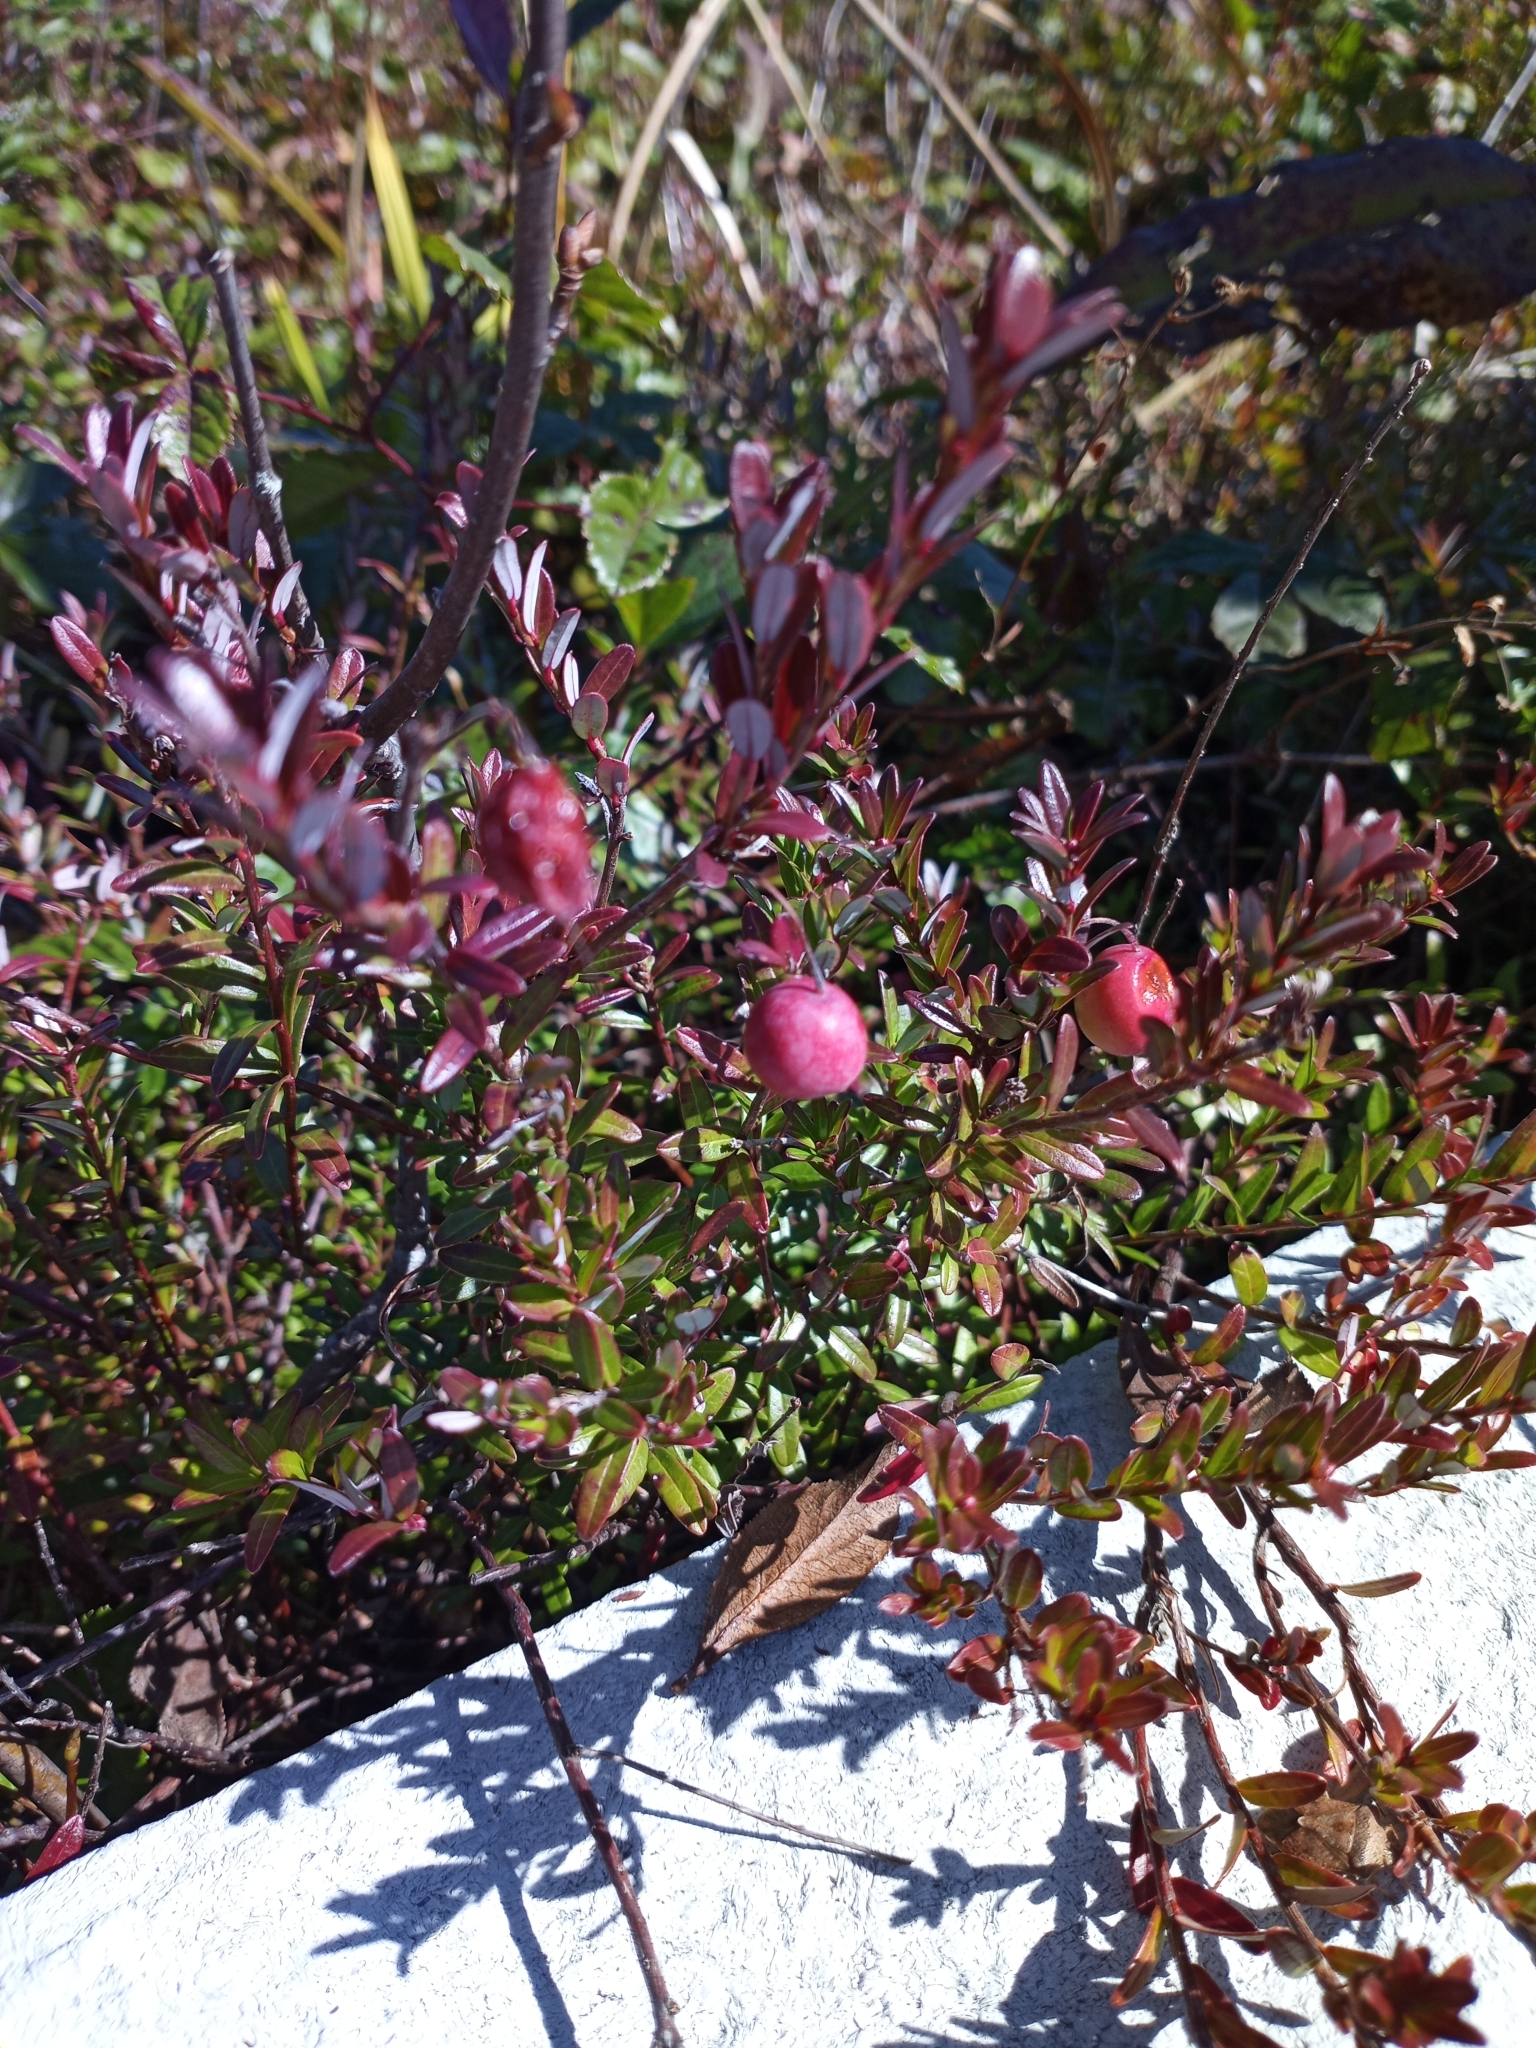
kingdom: Plantae
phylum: Tracheophyta
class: Magnoliopsida
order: Ericales
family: Ericaceae
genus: Vaccinium
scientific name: Vaccinium macrocarpon
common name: American cranberry
